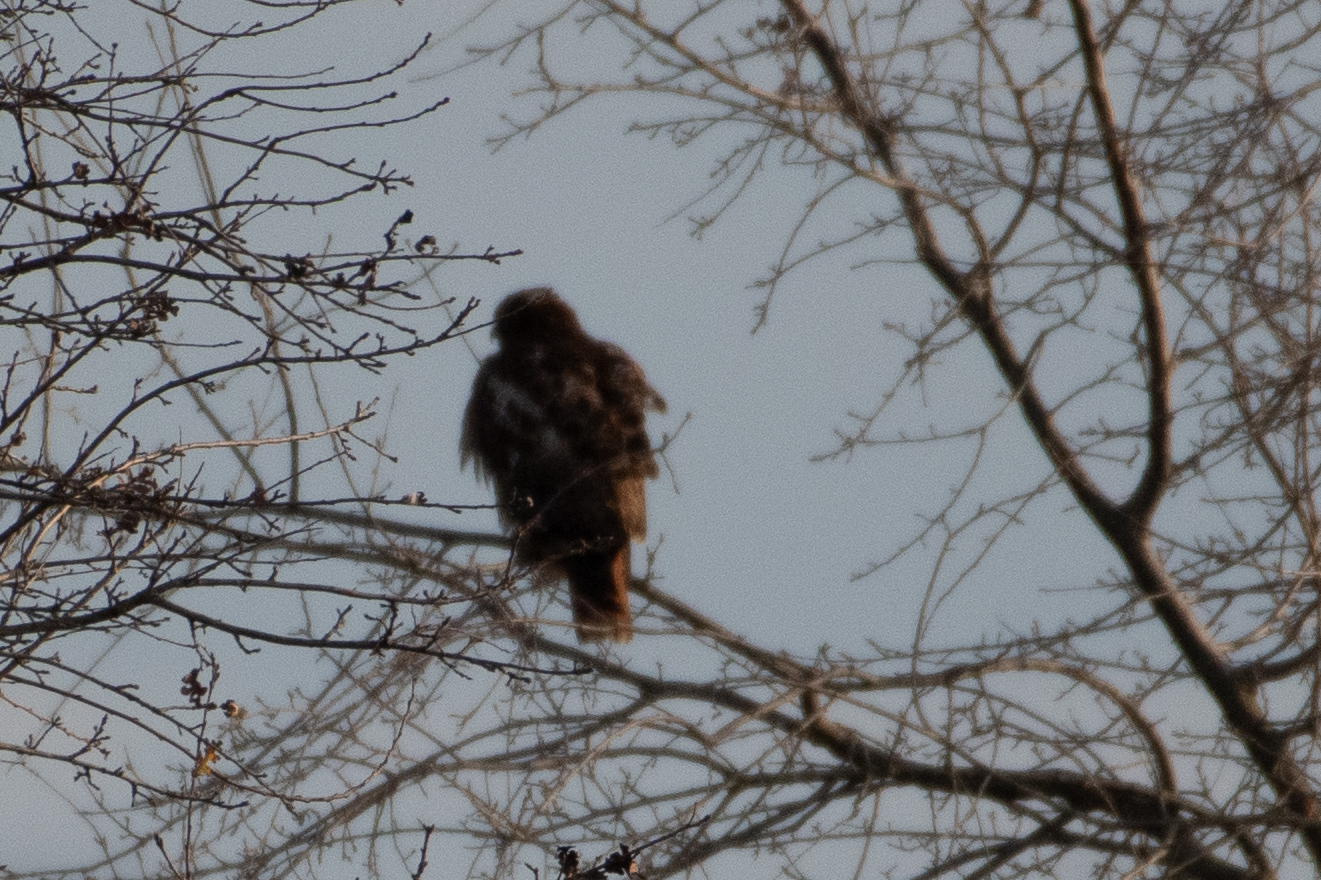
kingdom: Animalia
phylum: Chordata
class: Aves
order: Accipitriformes
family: Accipitridae
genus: Buteo
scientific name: Buteo jamaicensis
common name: Red-tailed hawk
